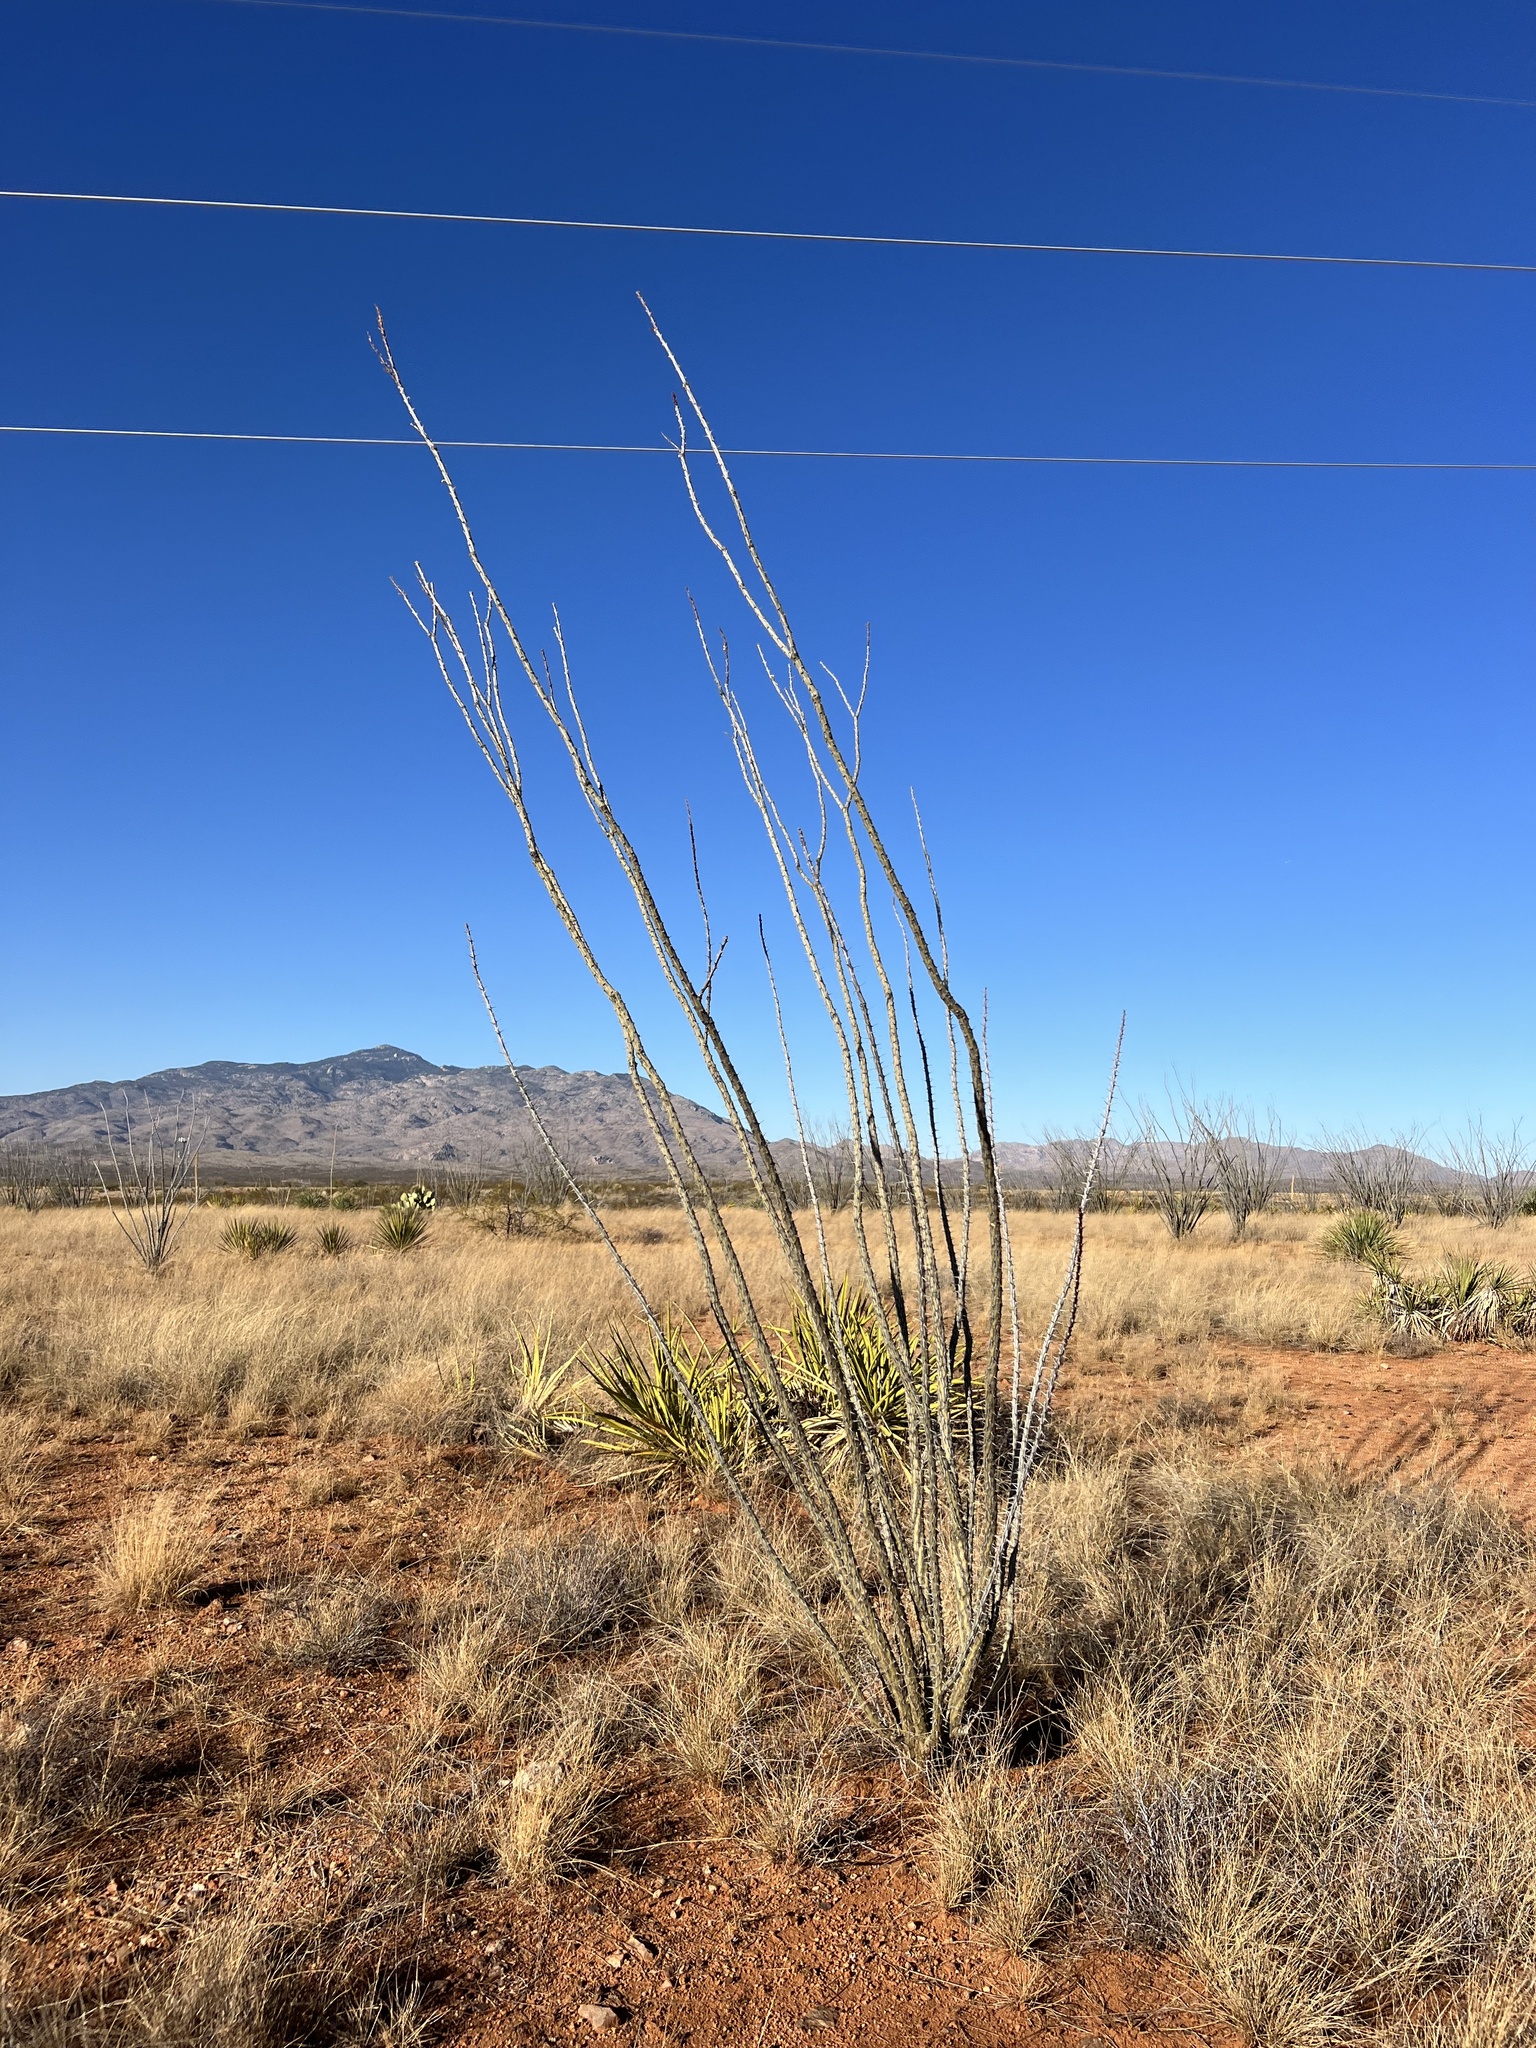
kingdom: Plantae
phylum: Tracheophyta
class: Magnoliopsida
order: Ericales
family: Fouquieriaceae
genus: Fouquieria
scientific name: Fouquieria splendens
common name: Vine-cactus
